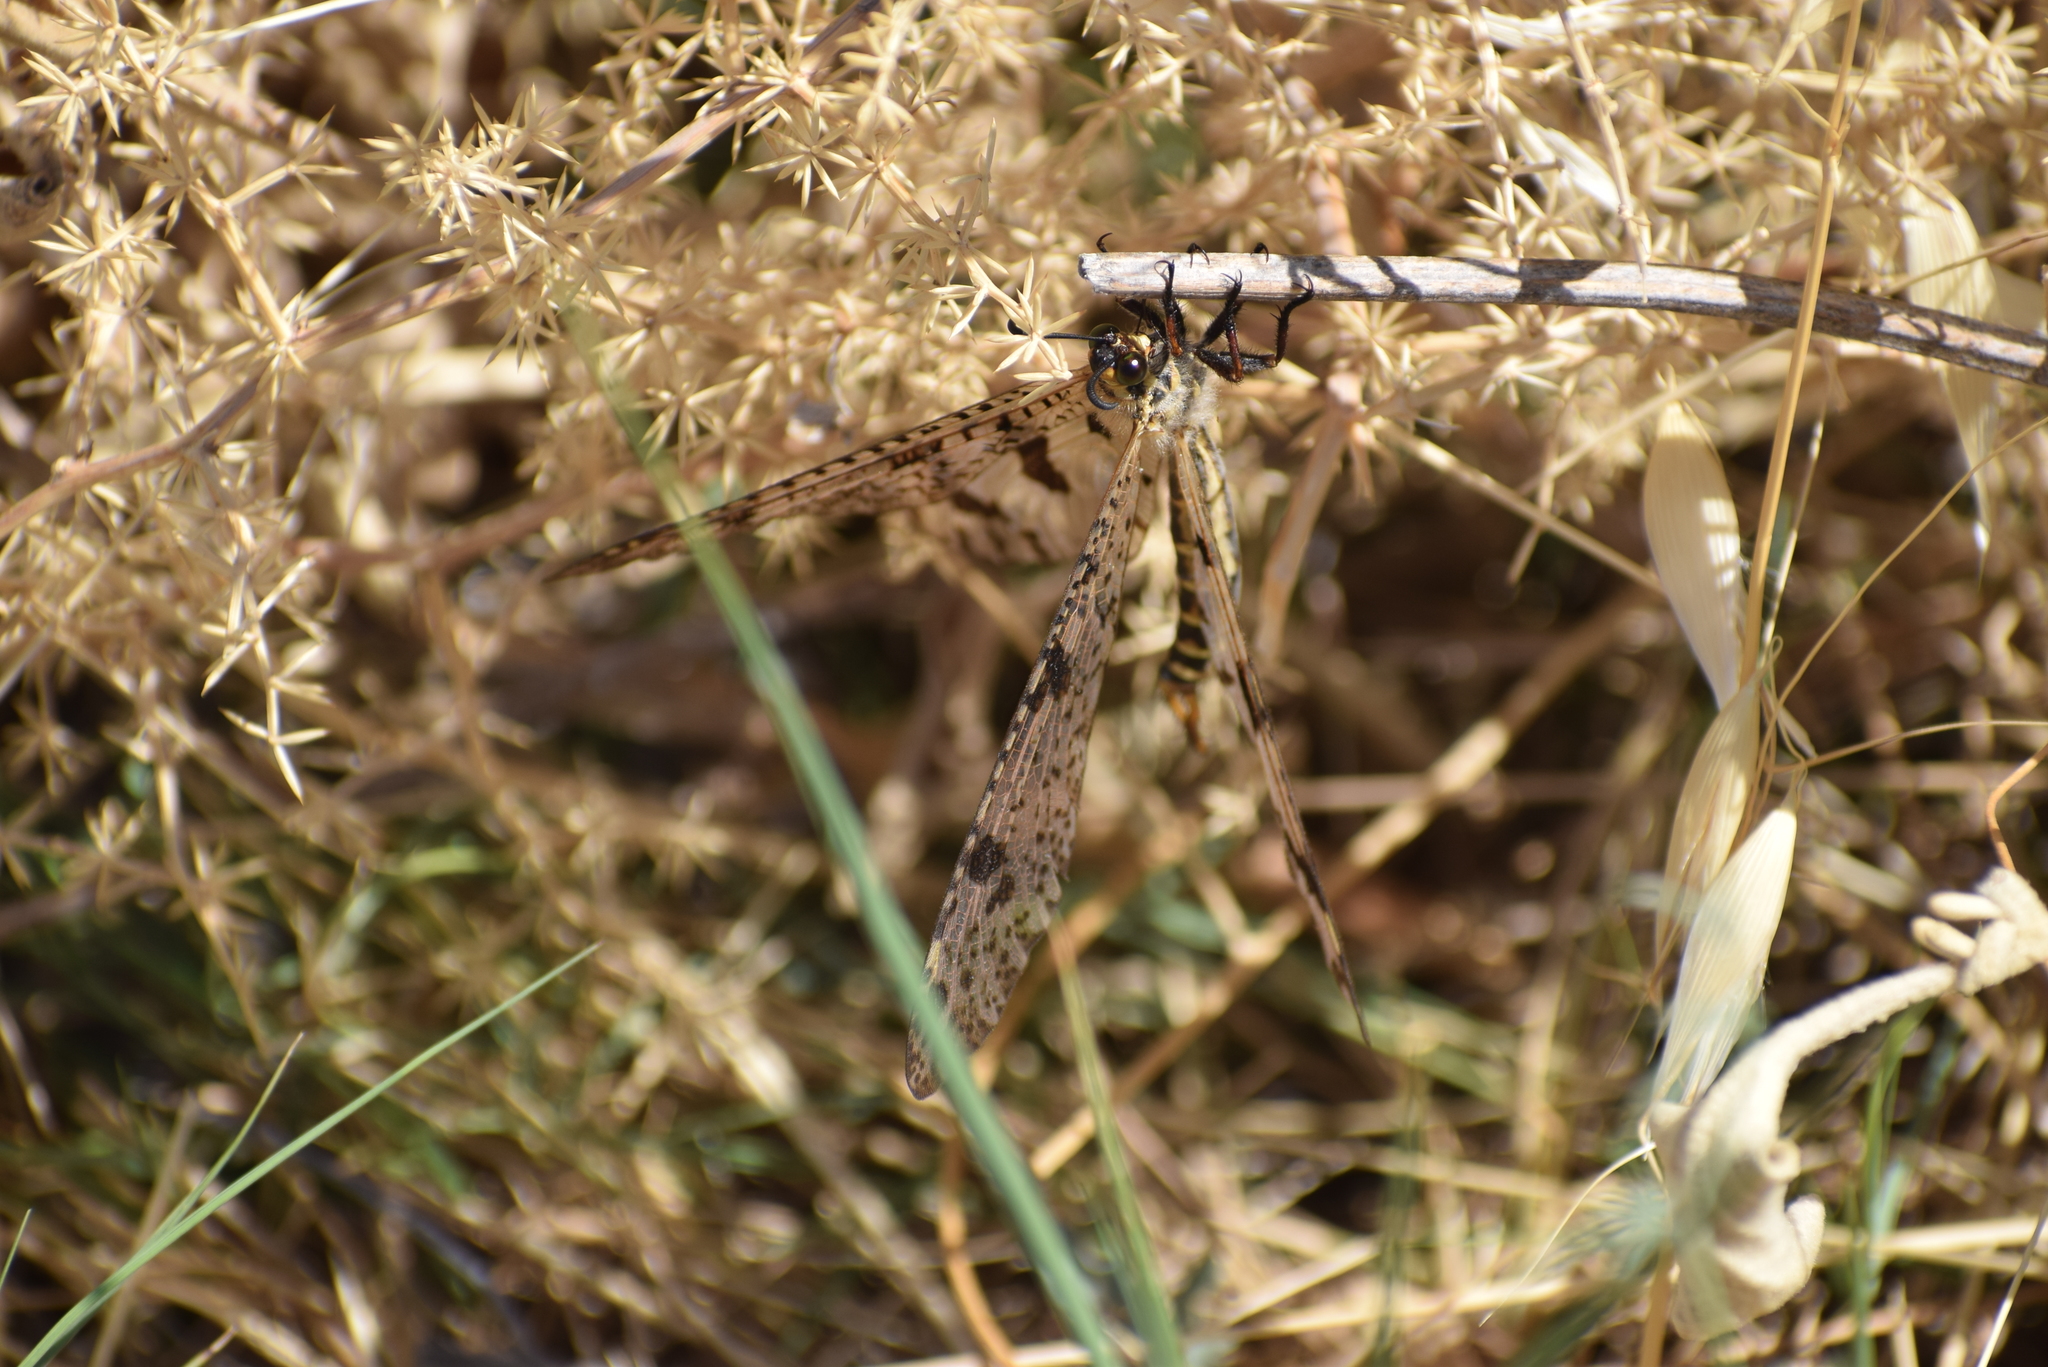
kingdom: Animalia
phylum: Arthropoda
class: Insecta
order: Neuroptera
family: Myrmeleontidae
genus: Palpares
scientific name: Palpares libelluloides
